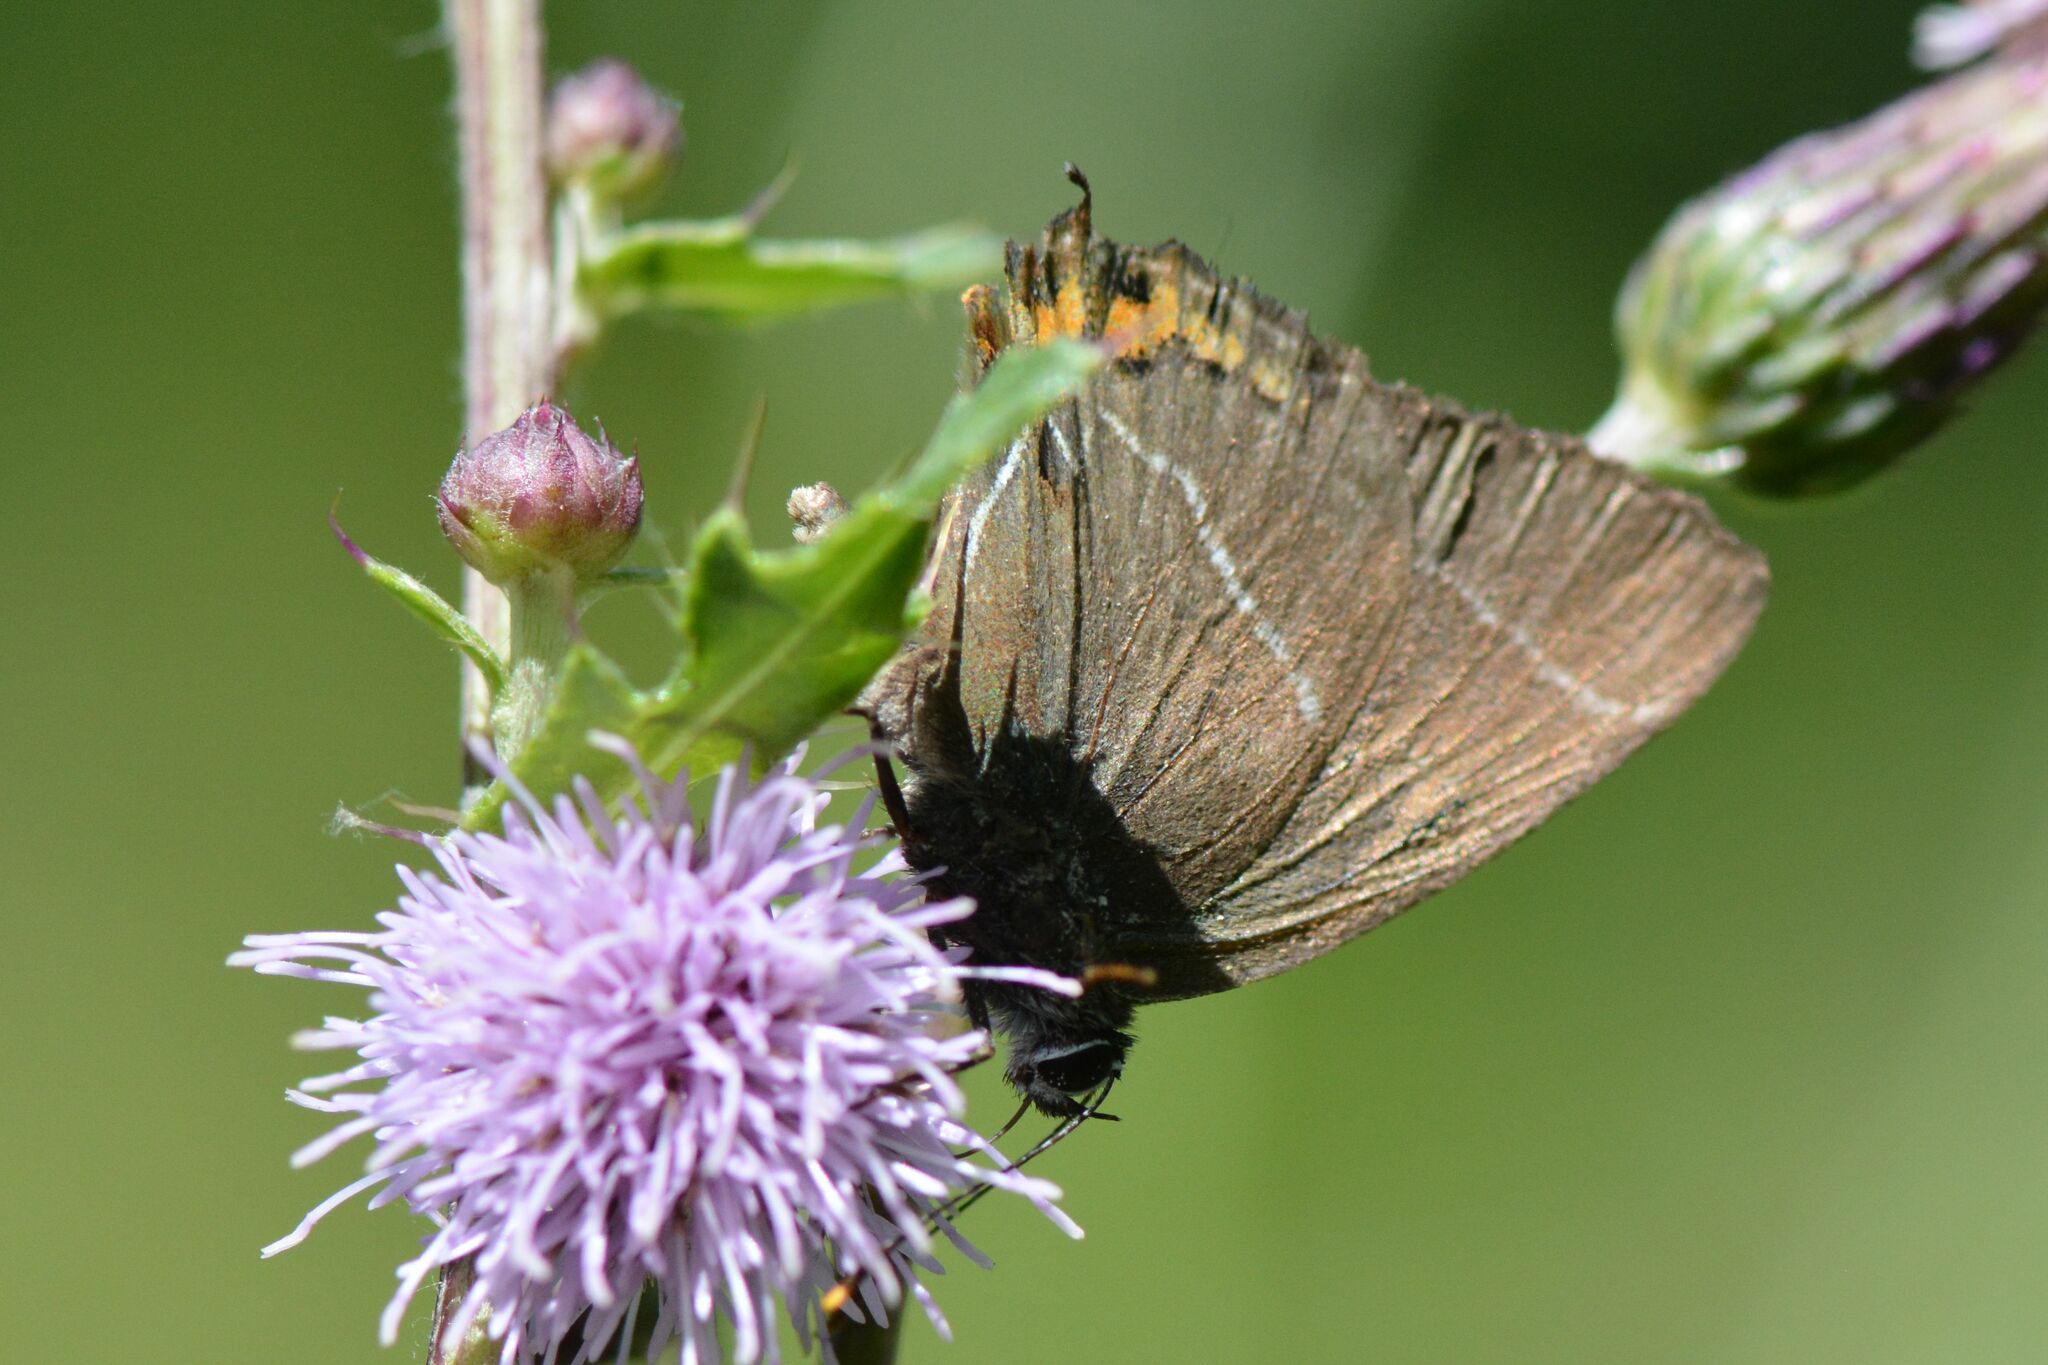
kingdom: Animalia
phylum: Arthropoda
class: Insecta
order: Lepidoptera
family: Lycaenidae
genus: Satyrium
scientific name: Satyrium w-album
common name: White-letter hairstreak
